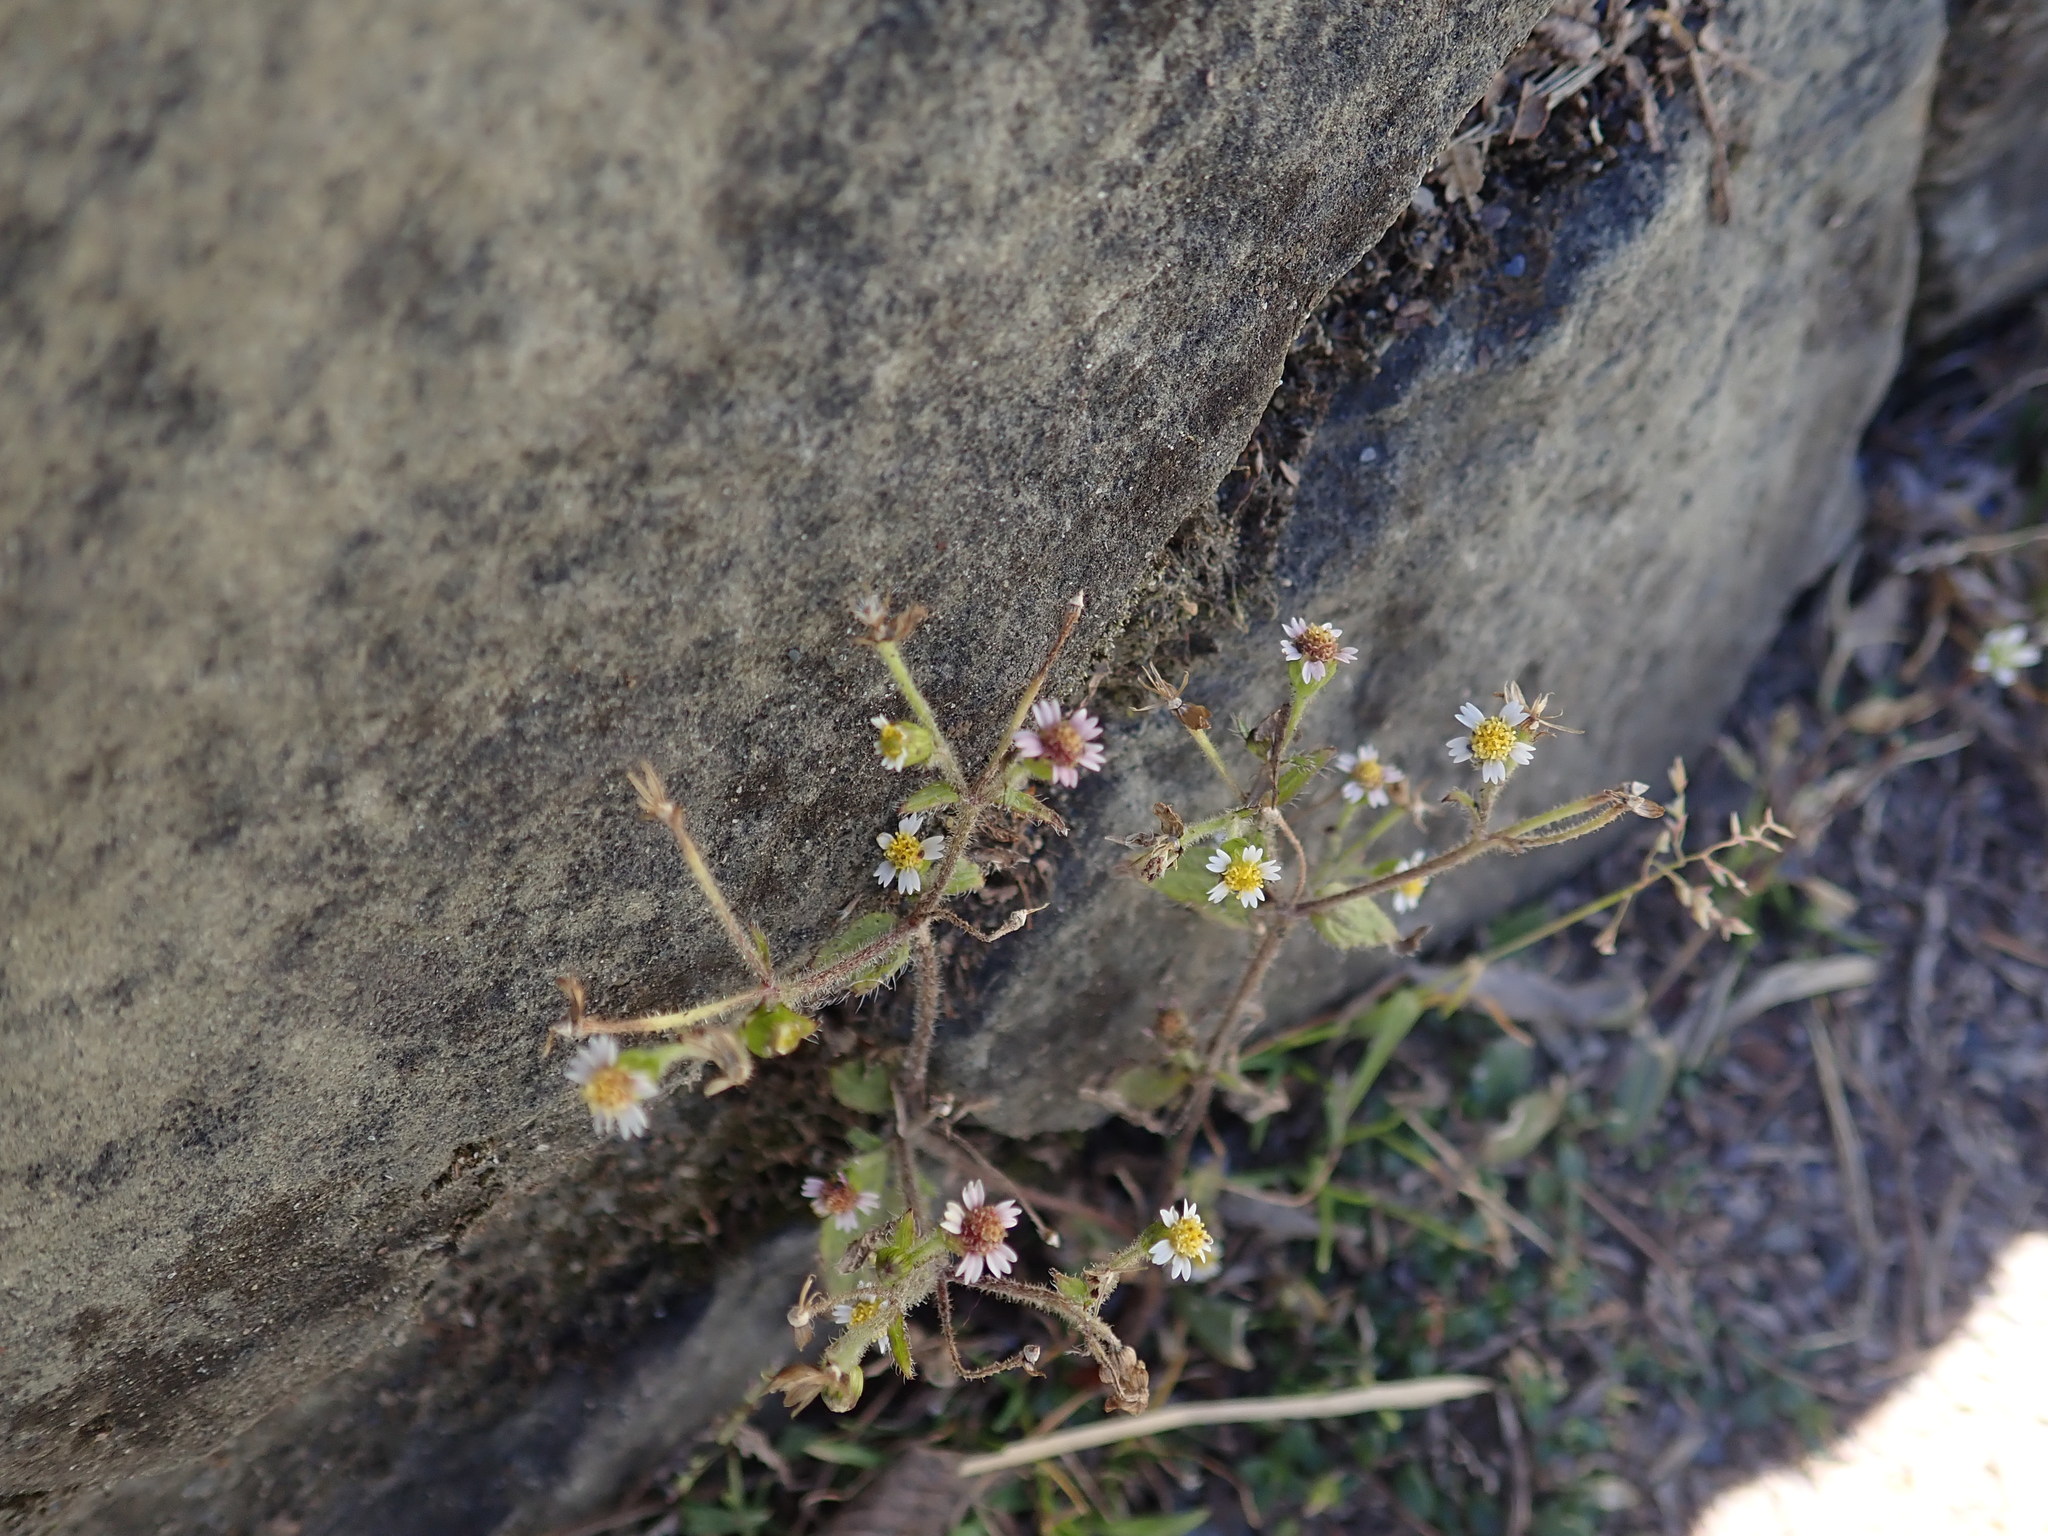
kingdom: Plantae
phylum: Tracheophyta
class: Magnoliopsida
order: Asterales
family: Asteraceae
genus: Galinsoga
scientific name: Galinsoga quadriradiata
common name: Shaggy soldier
